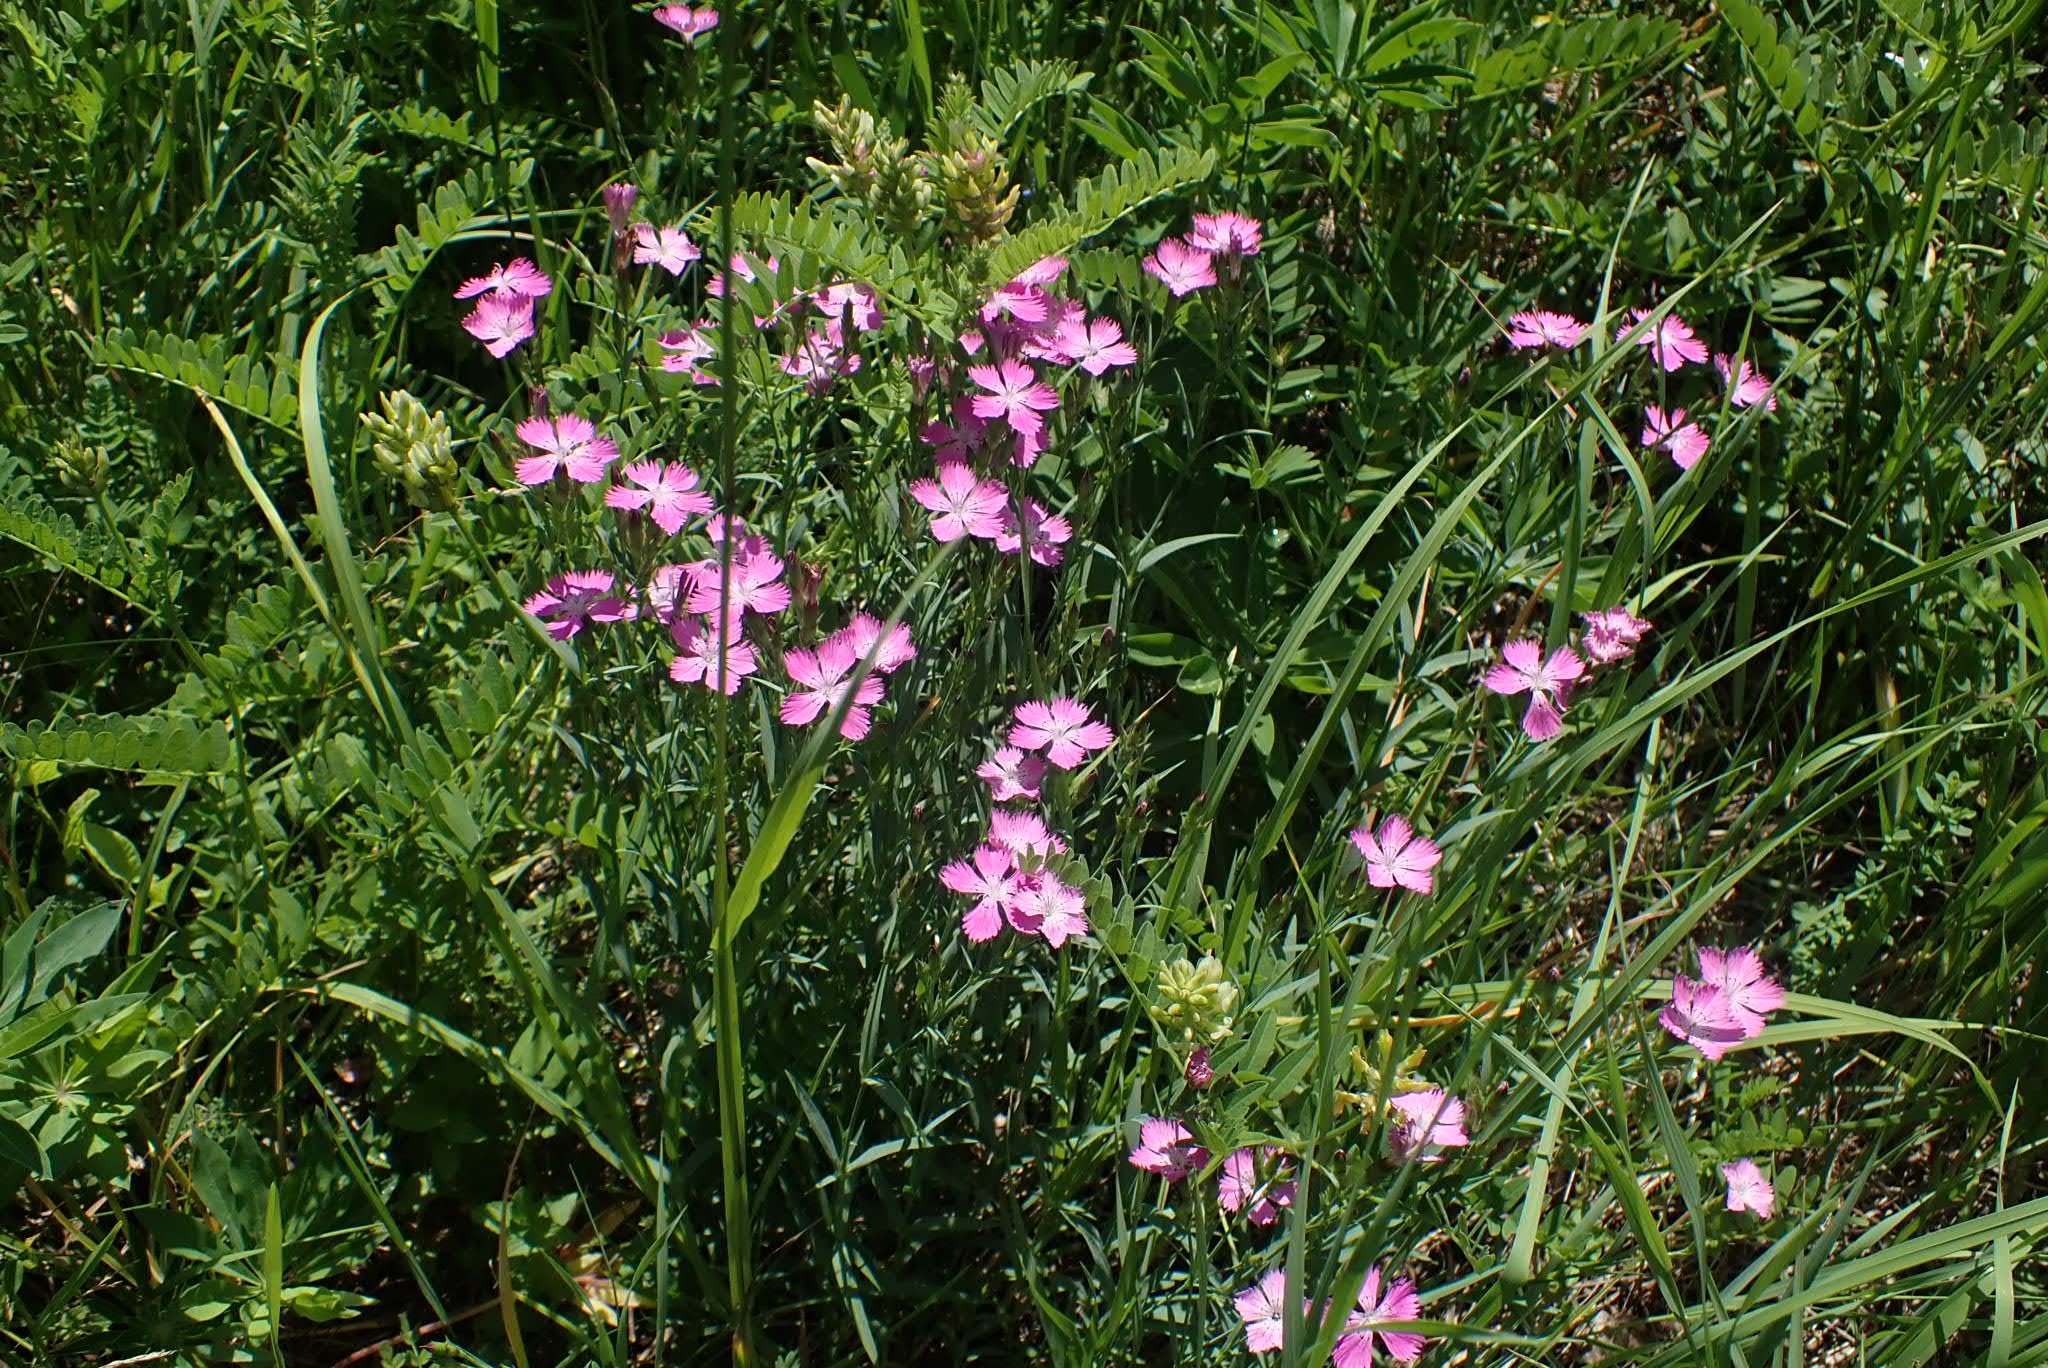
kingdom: Plantae
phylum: Tracheophyta
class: Magnoliopsida
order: Caryophyllales
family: Caryophyllaceae
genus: Dianthus
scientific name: Dianthus chinensis
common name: Rainbow pink
